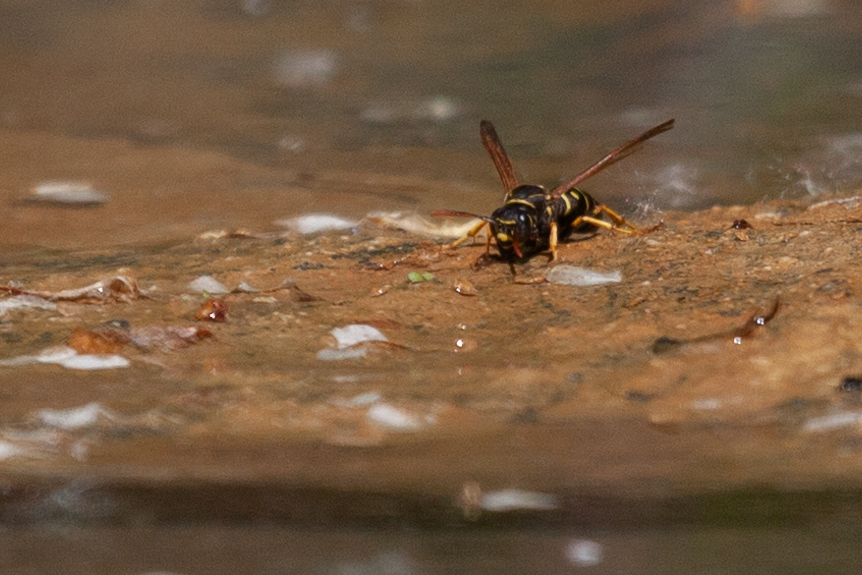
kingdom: Animalia
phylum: Arthropoda
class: Insecta
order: Hymenoptera
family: Eumenidae
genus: Polistes
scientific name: Polistes nimpha
